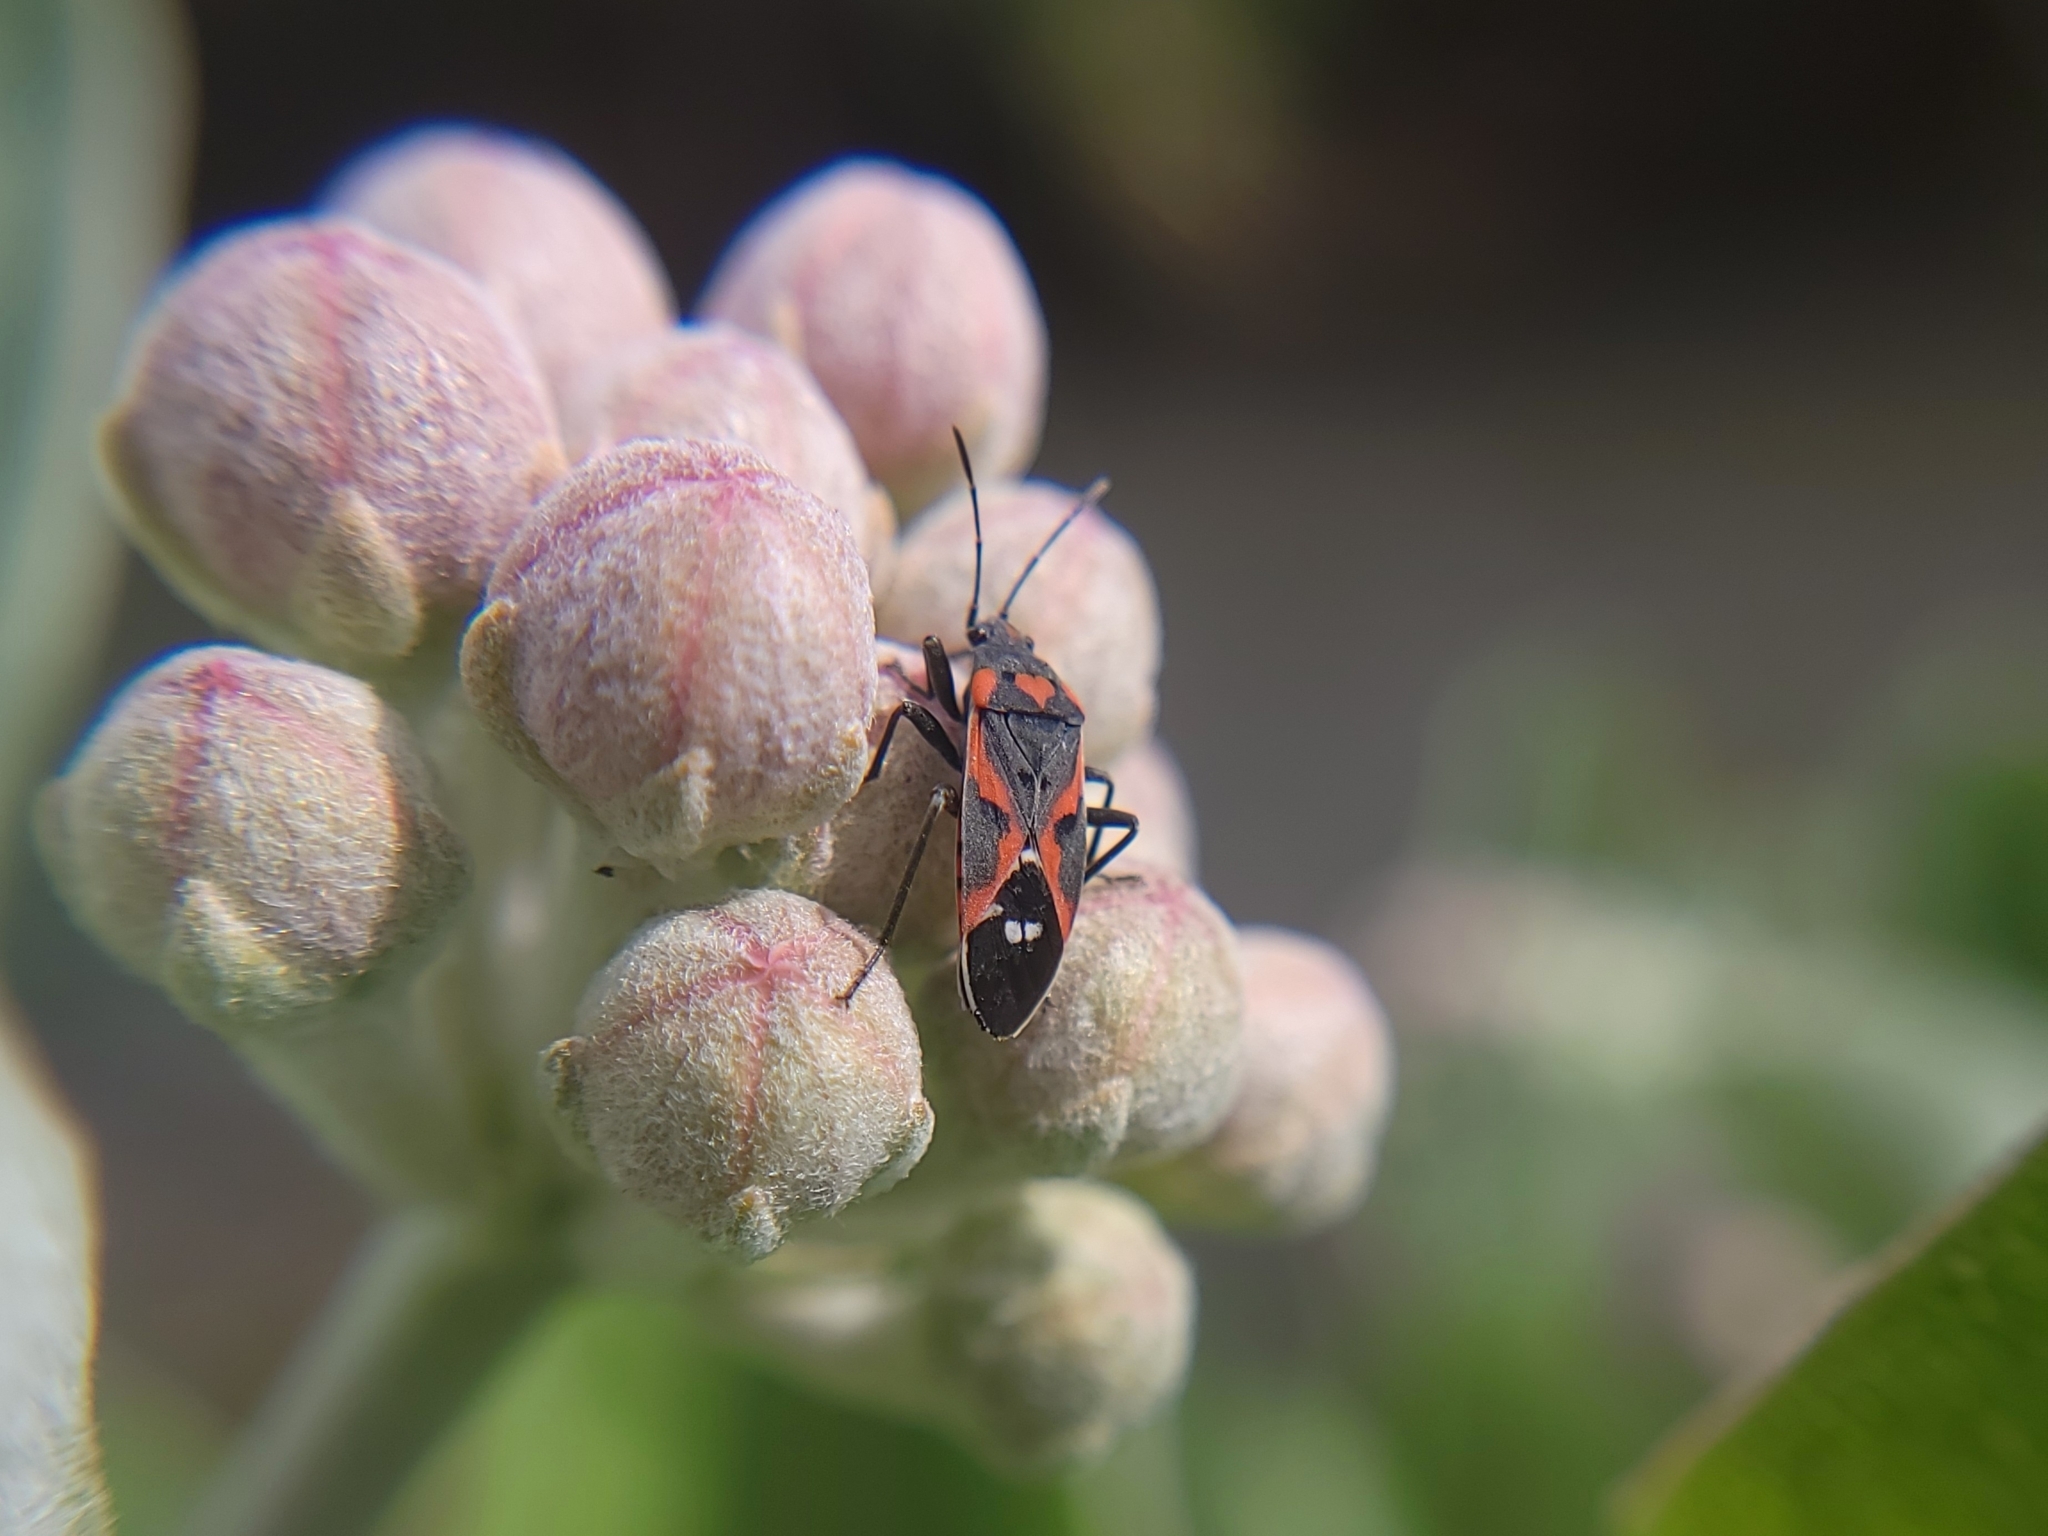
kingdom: Animalia
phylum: Arthropoda
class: Insecta
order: Hemiptera
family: Lygaeidae
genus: Lygaeus
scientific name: Lygaeus kalmii
